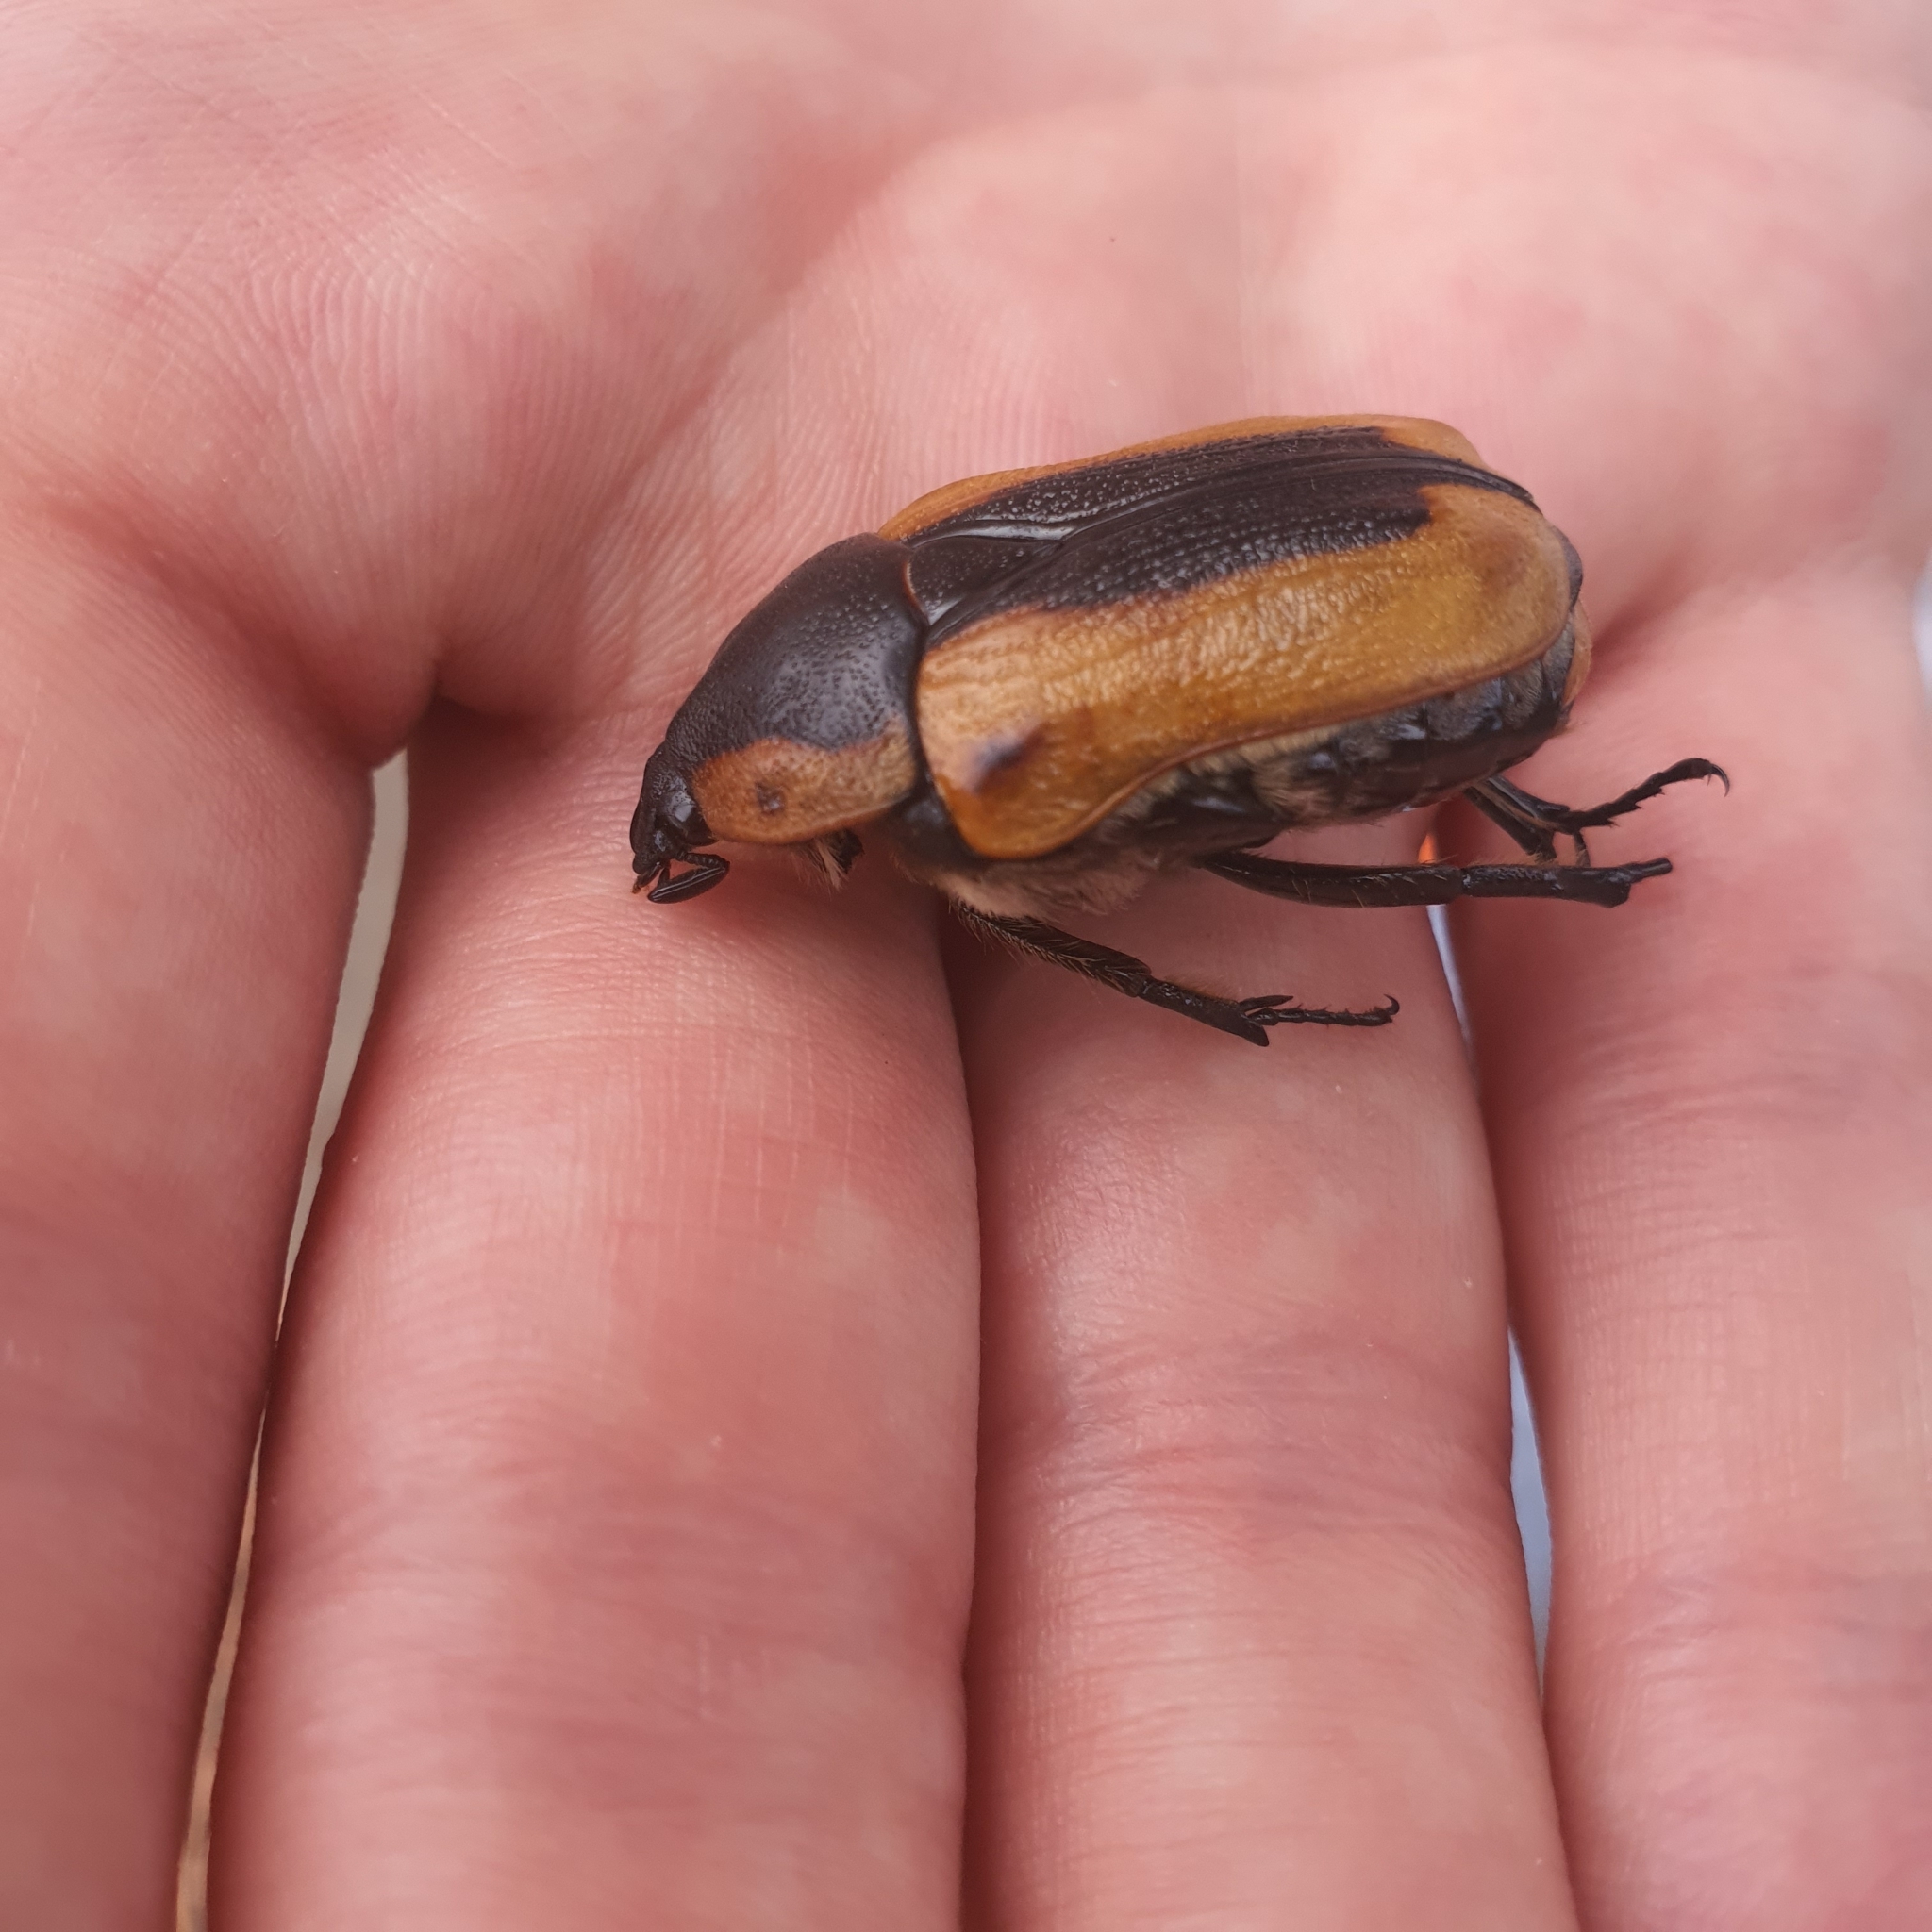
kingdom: Animalia
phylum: Arthropoda
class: Insecta
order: Coleoptera
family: Scarabaeidae
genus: Chondropyga
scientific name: Chondropyga dorsalis
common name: Cowboy beetle
